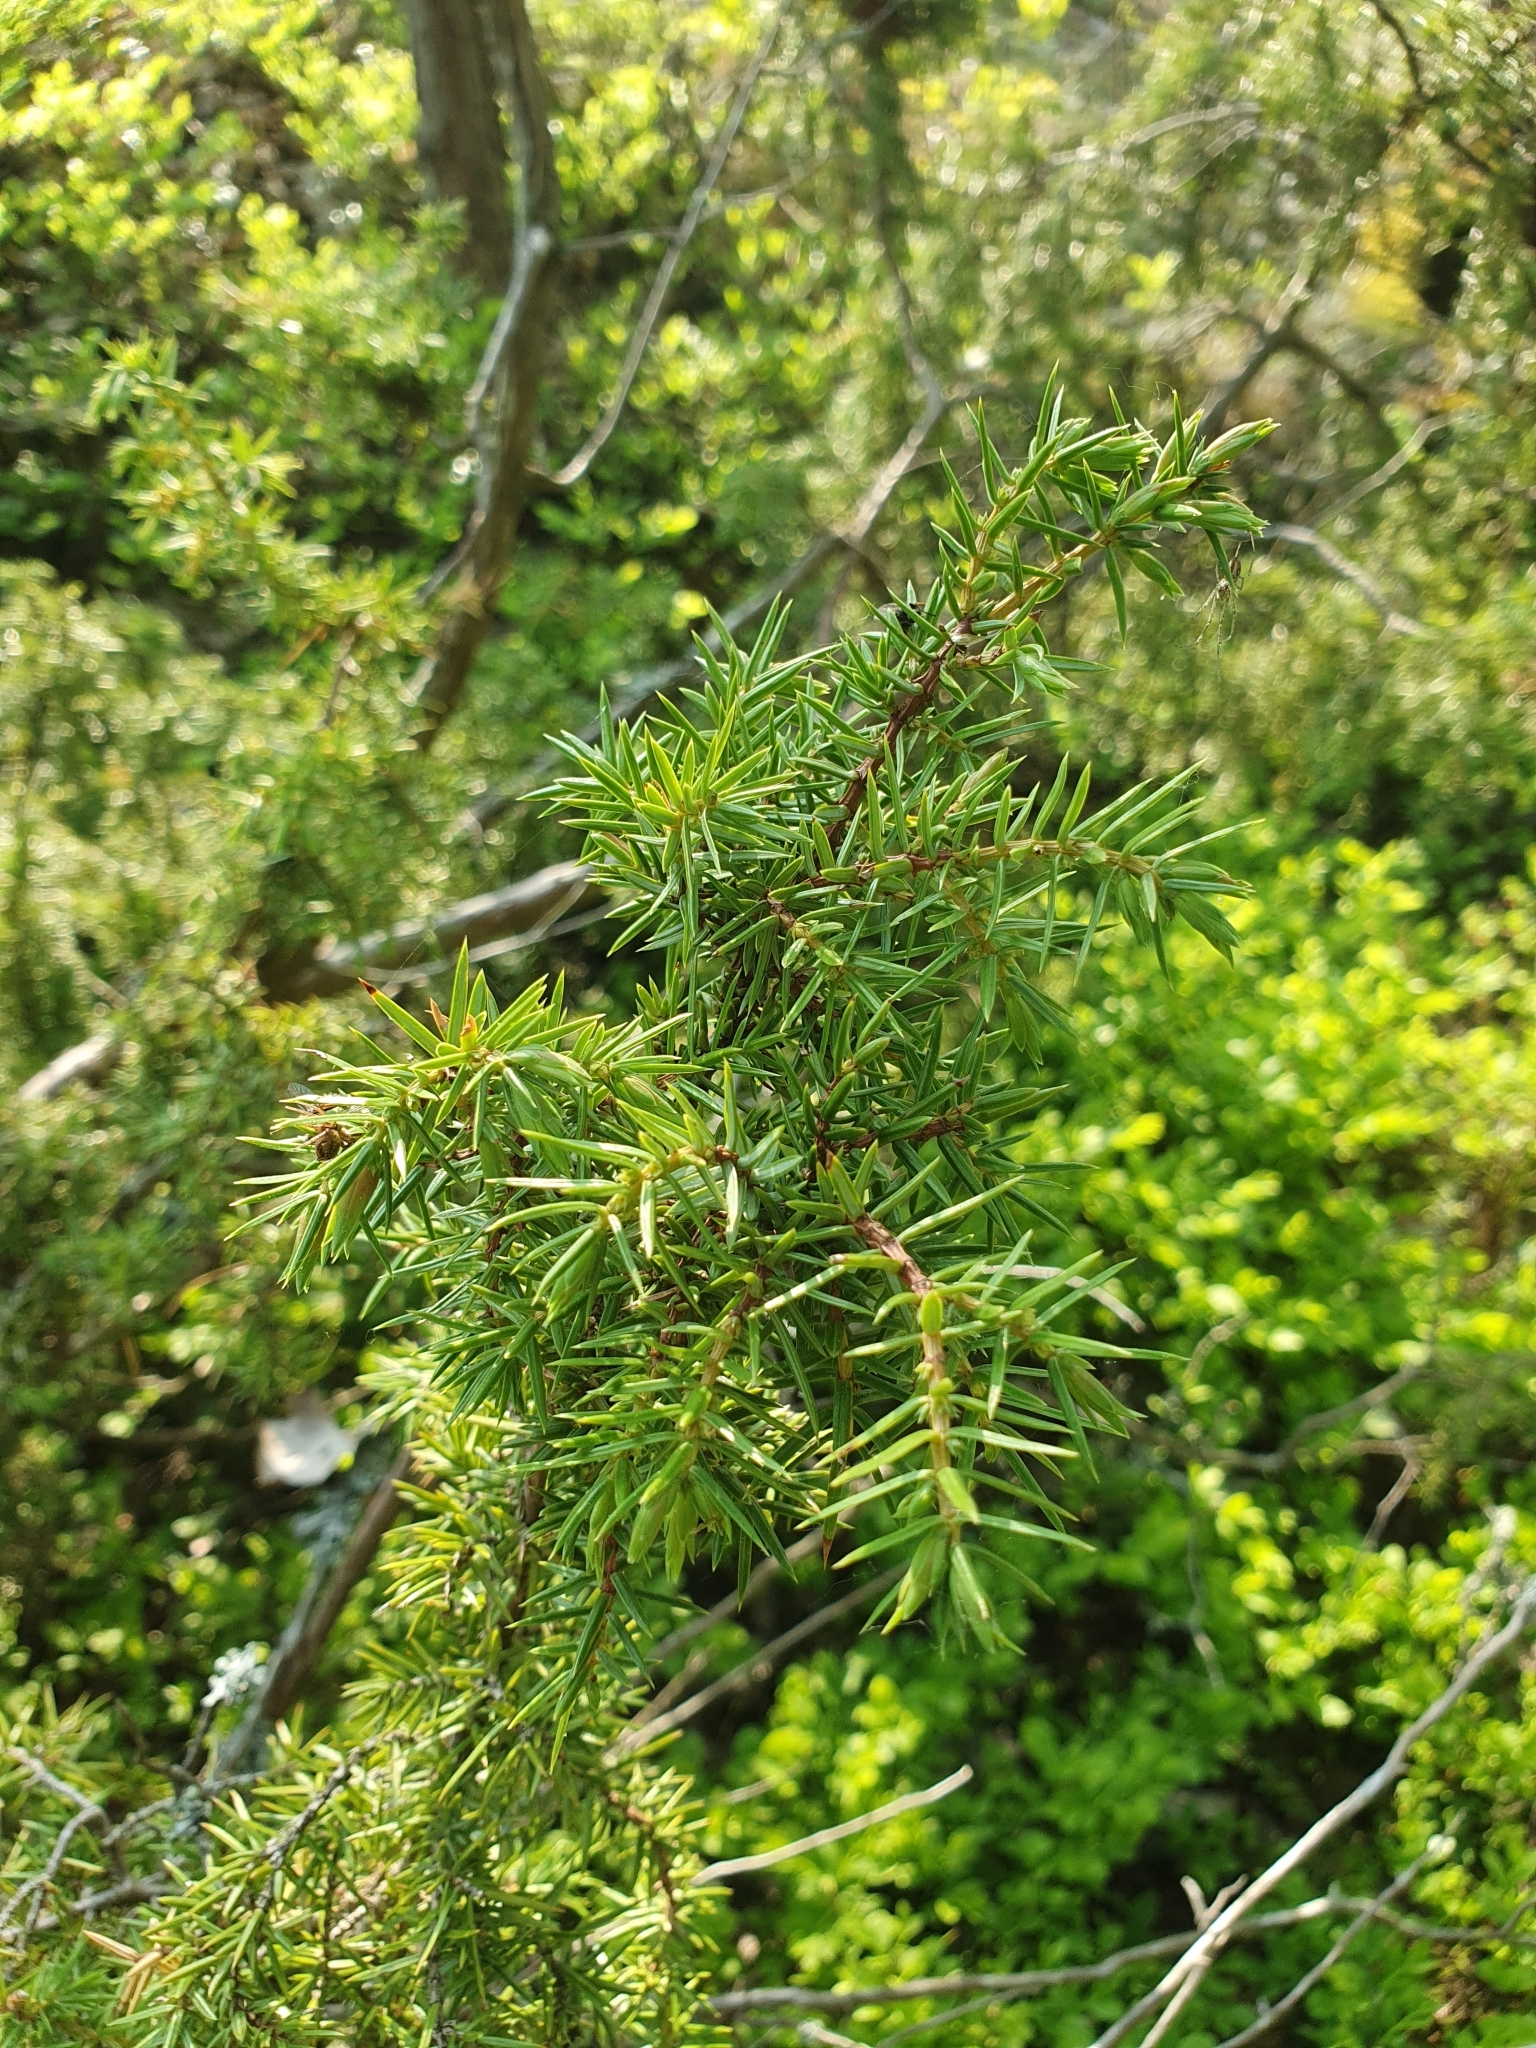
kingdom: Plantae
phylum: Tracheophyta
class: Pinopsida
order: Pinales
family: Cupressaceae
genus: Juniperus
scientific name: Juniperus communis
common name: Common juniper
